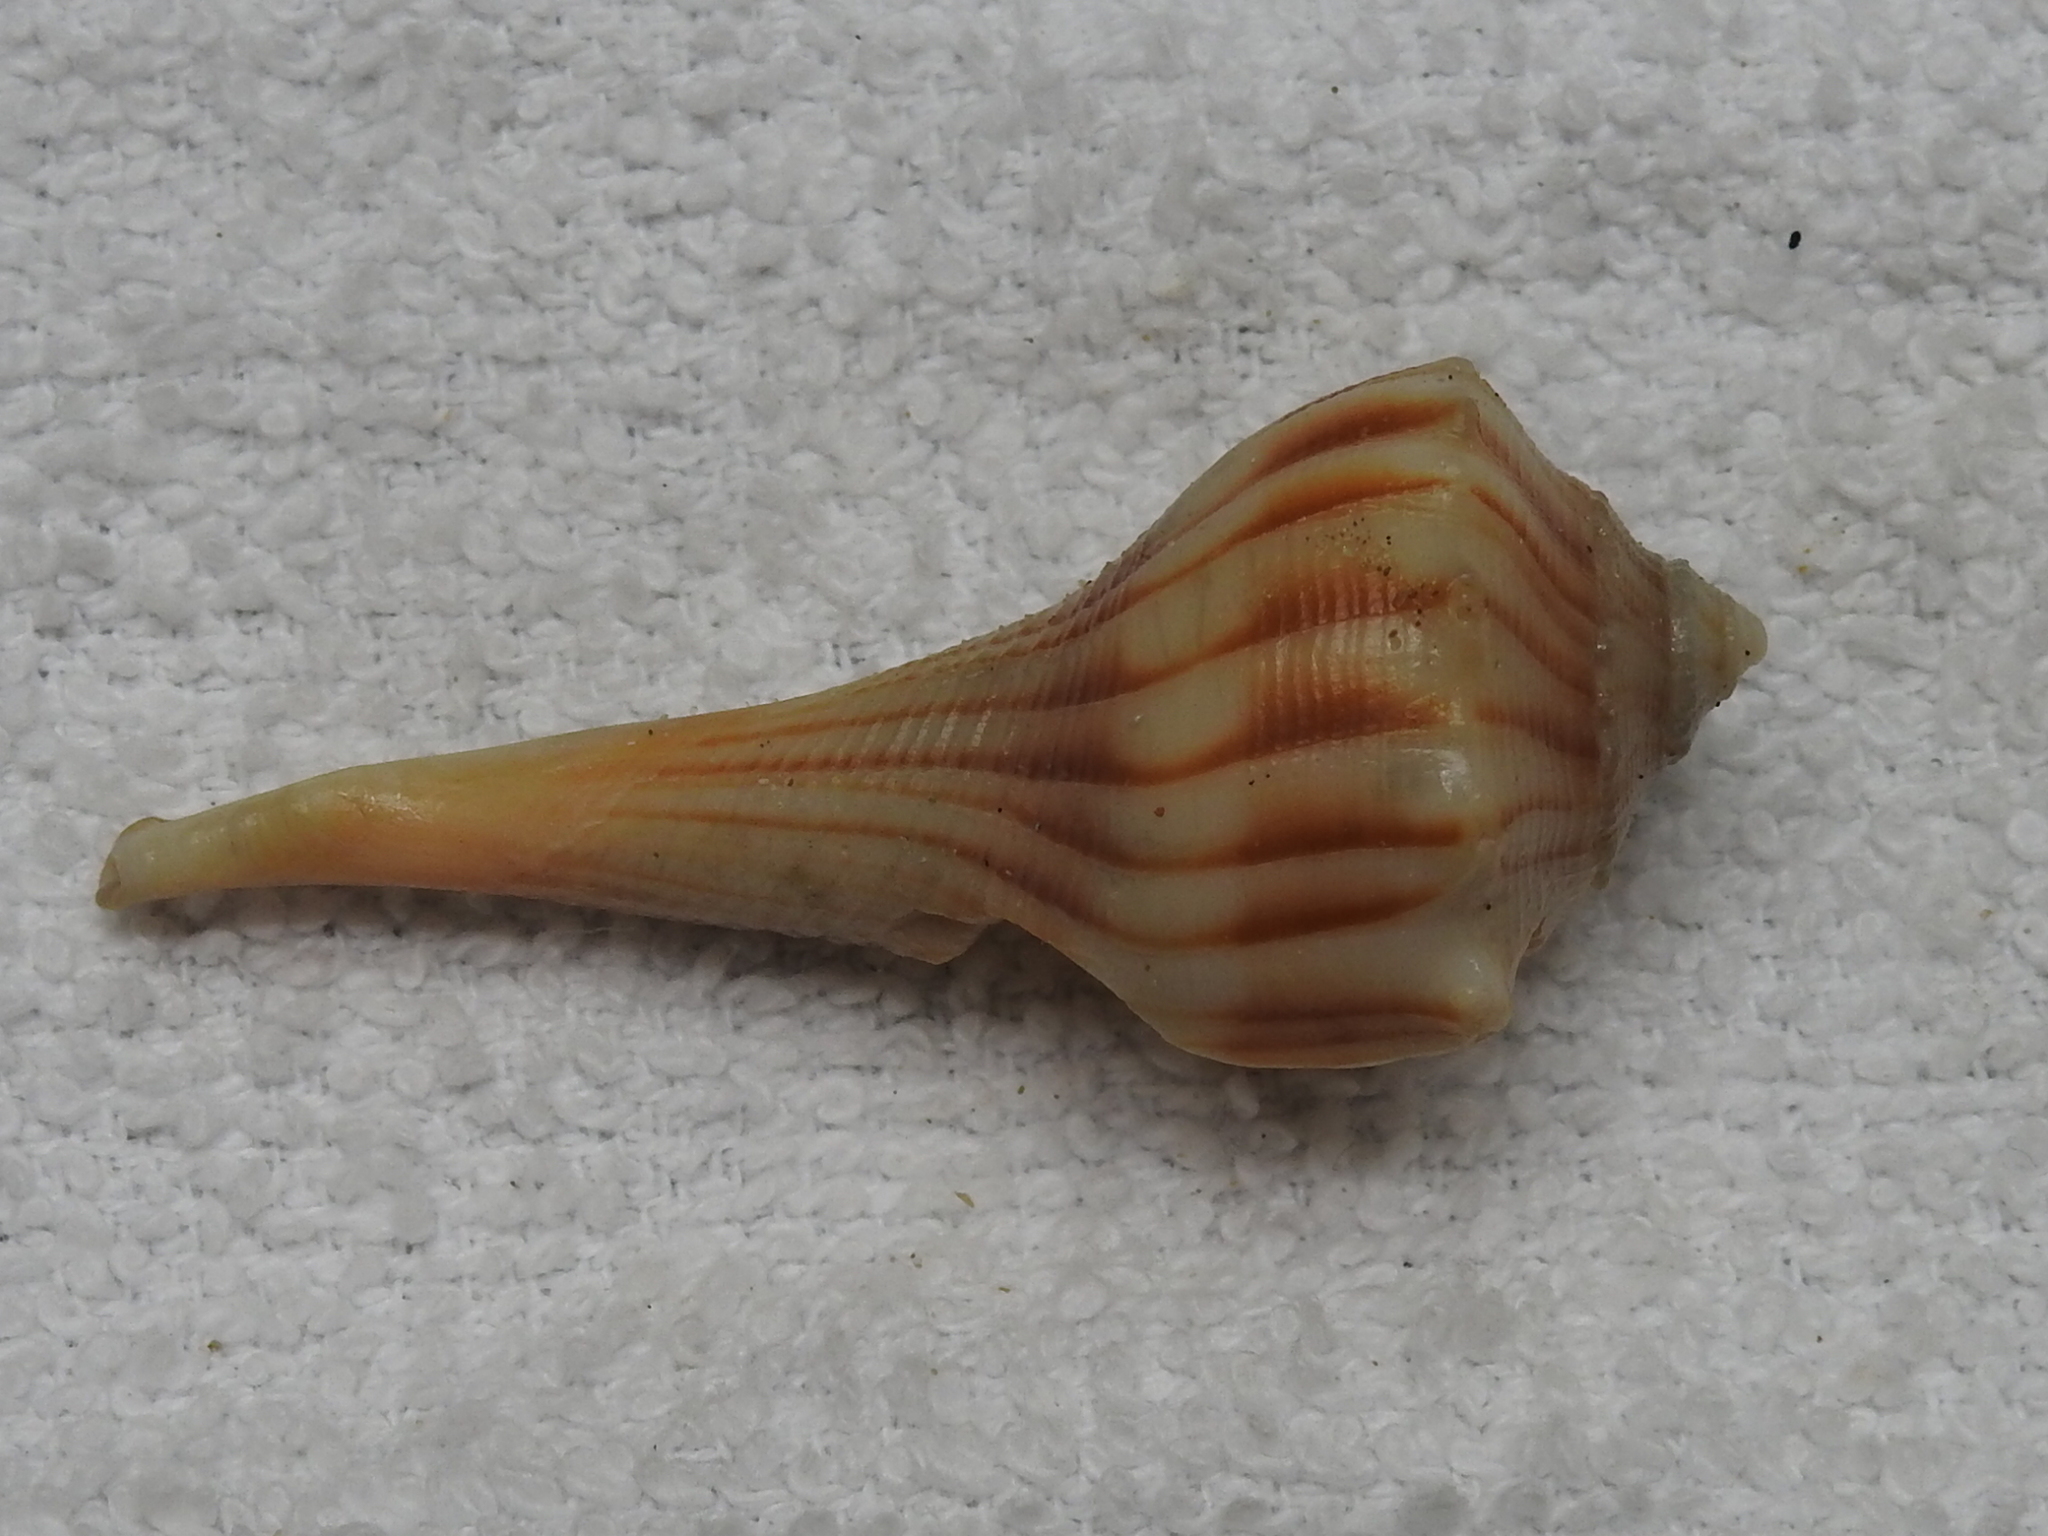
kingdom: Animalia
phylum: Mollusca
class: Gastropoda
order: Neogastropoda
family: Busyconidae
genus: Sinistrofulgur
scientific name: Sinistrofulgur pulleyi
